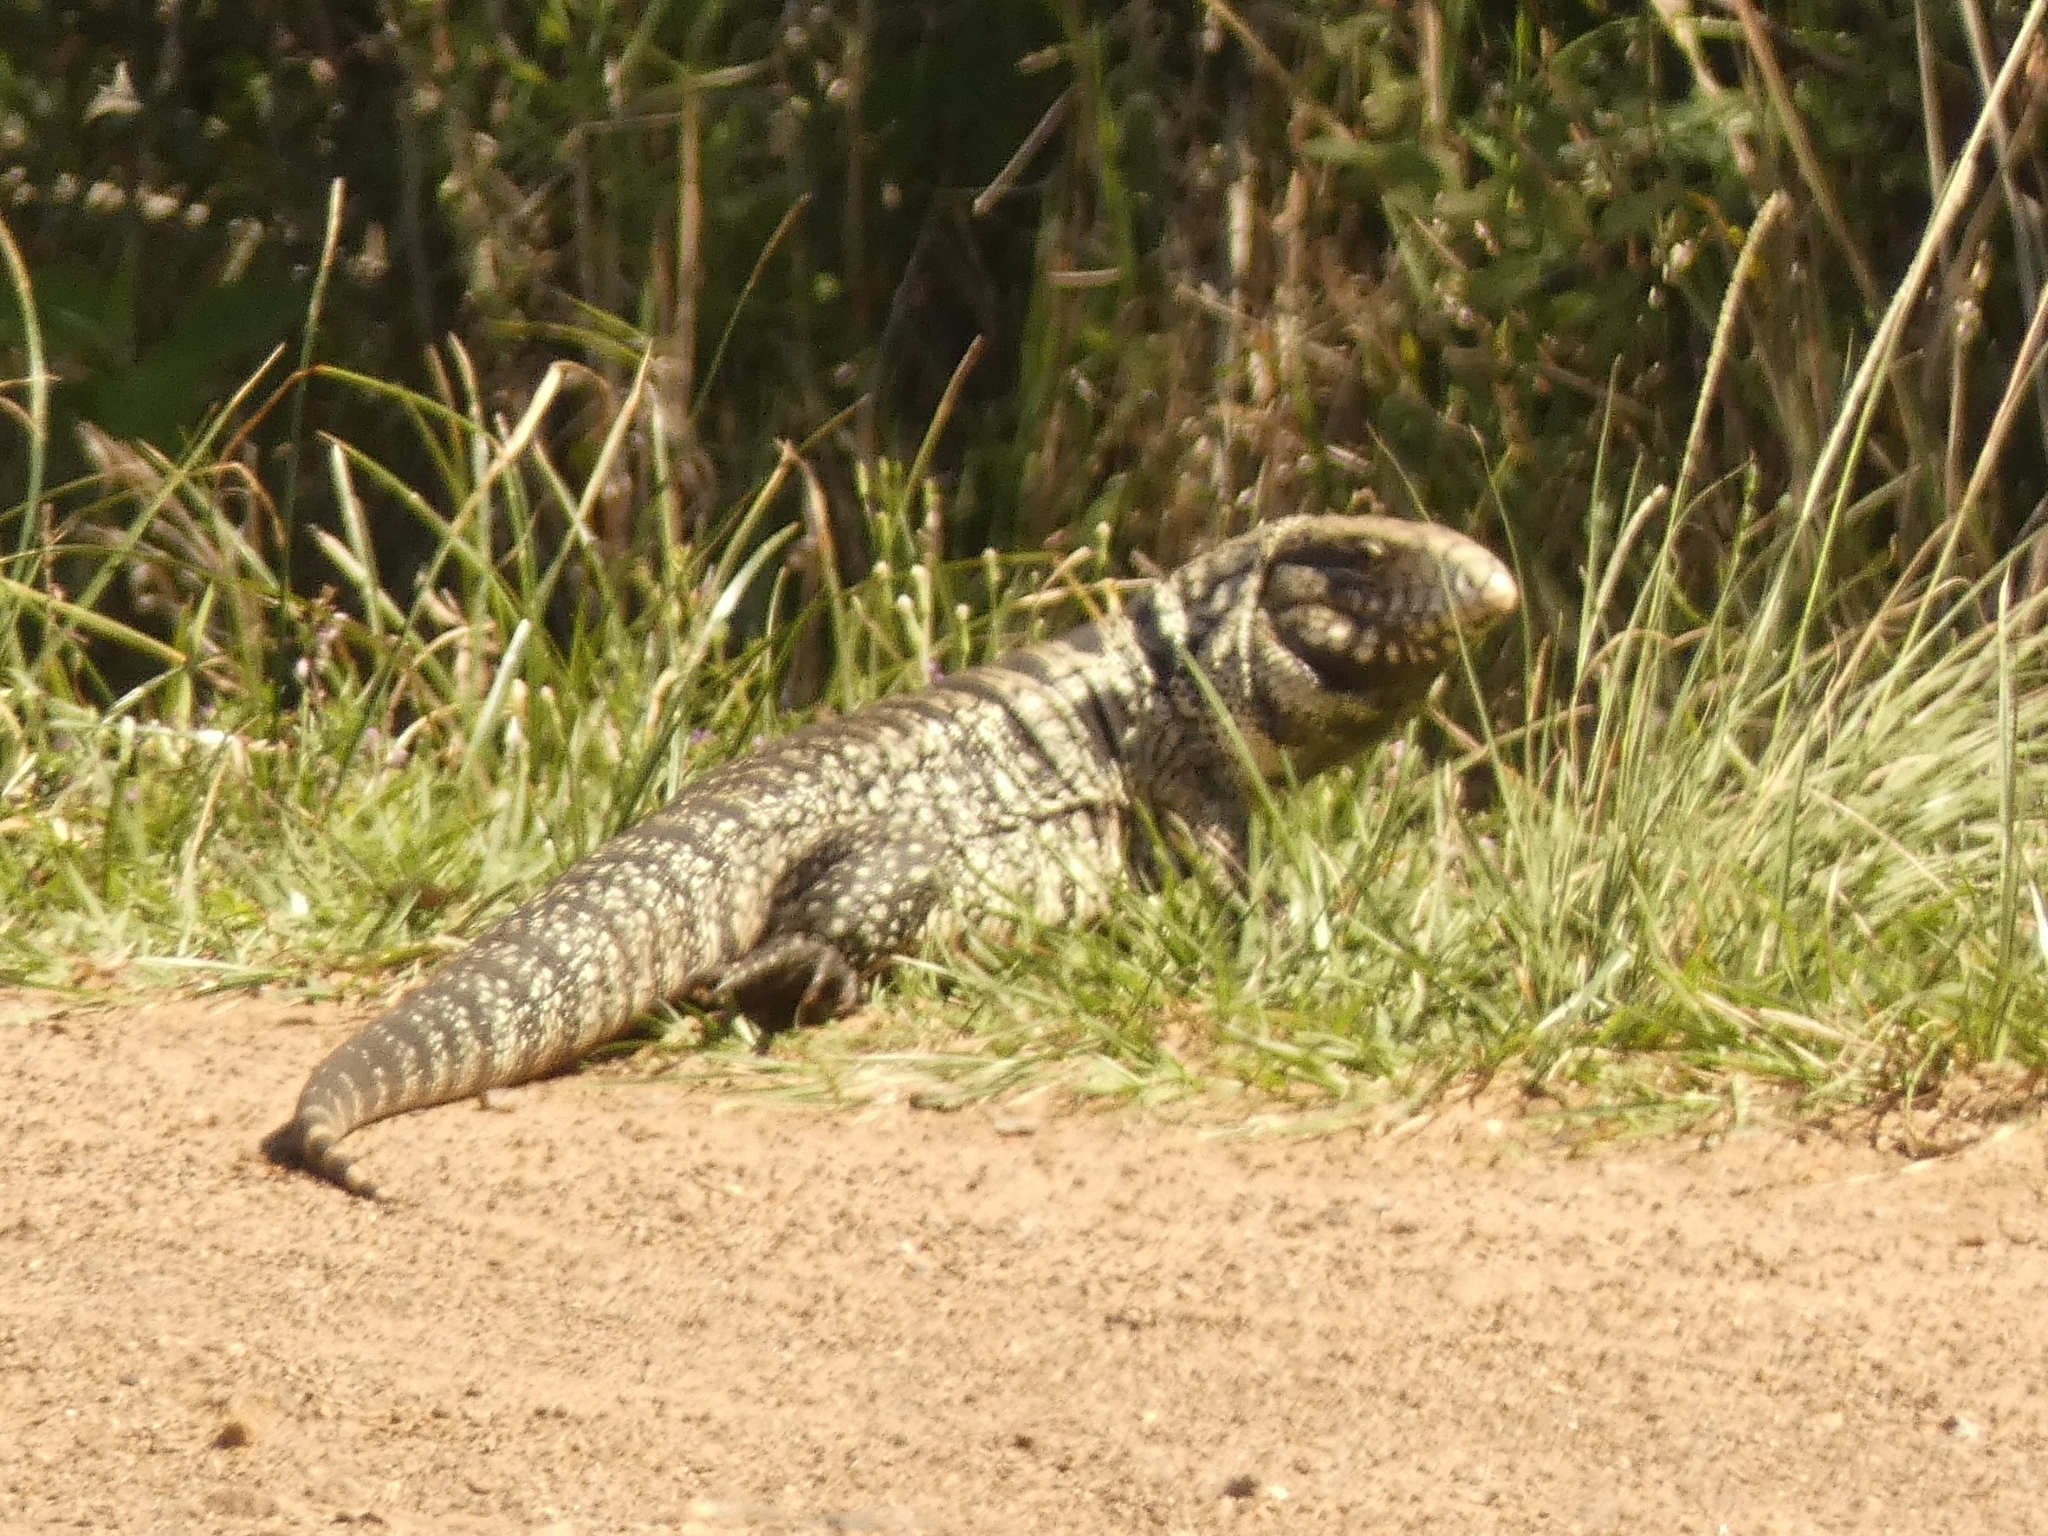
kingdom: Animalia
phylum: Chordata
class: Squamata
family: Teiidae
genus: Salvator
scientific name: Salvator merianae
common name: Argentine black and white tegu
